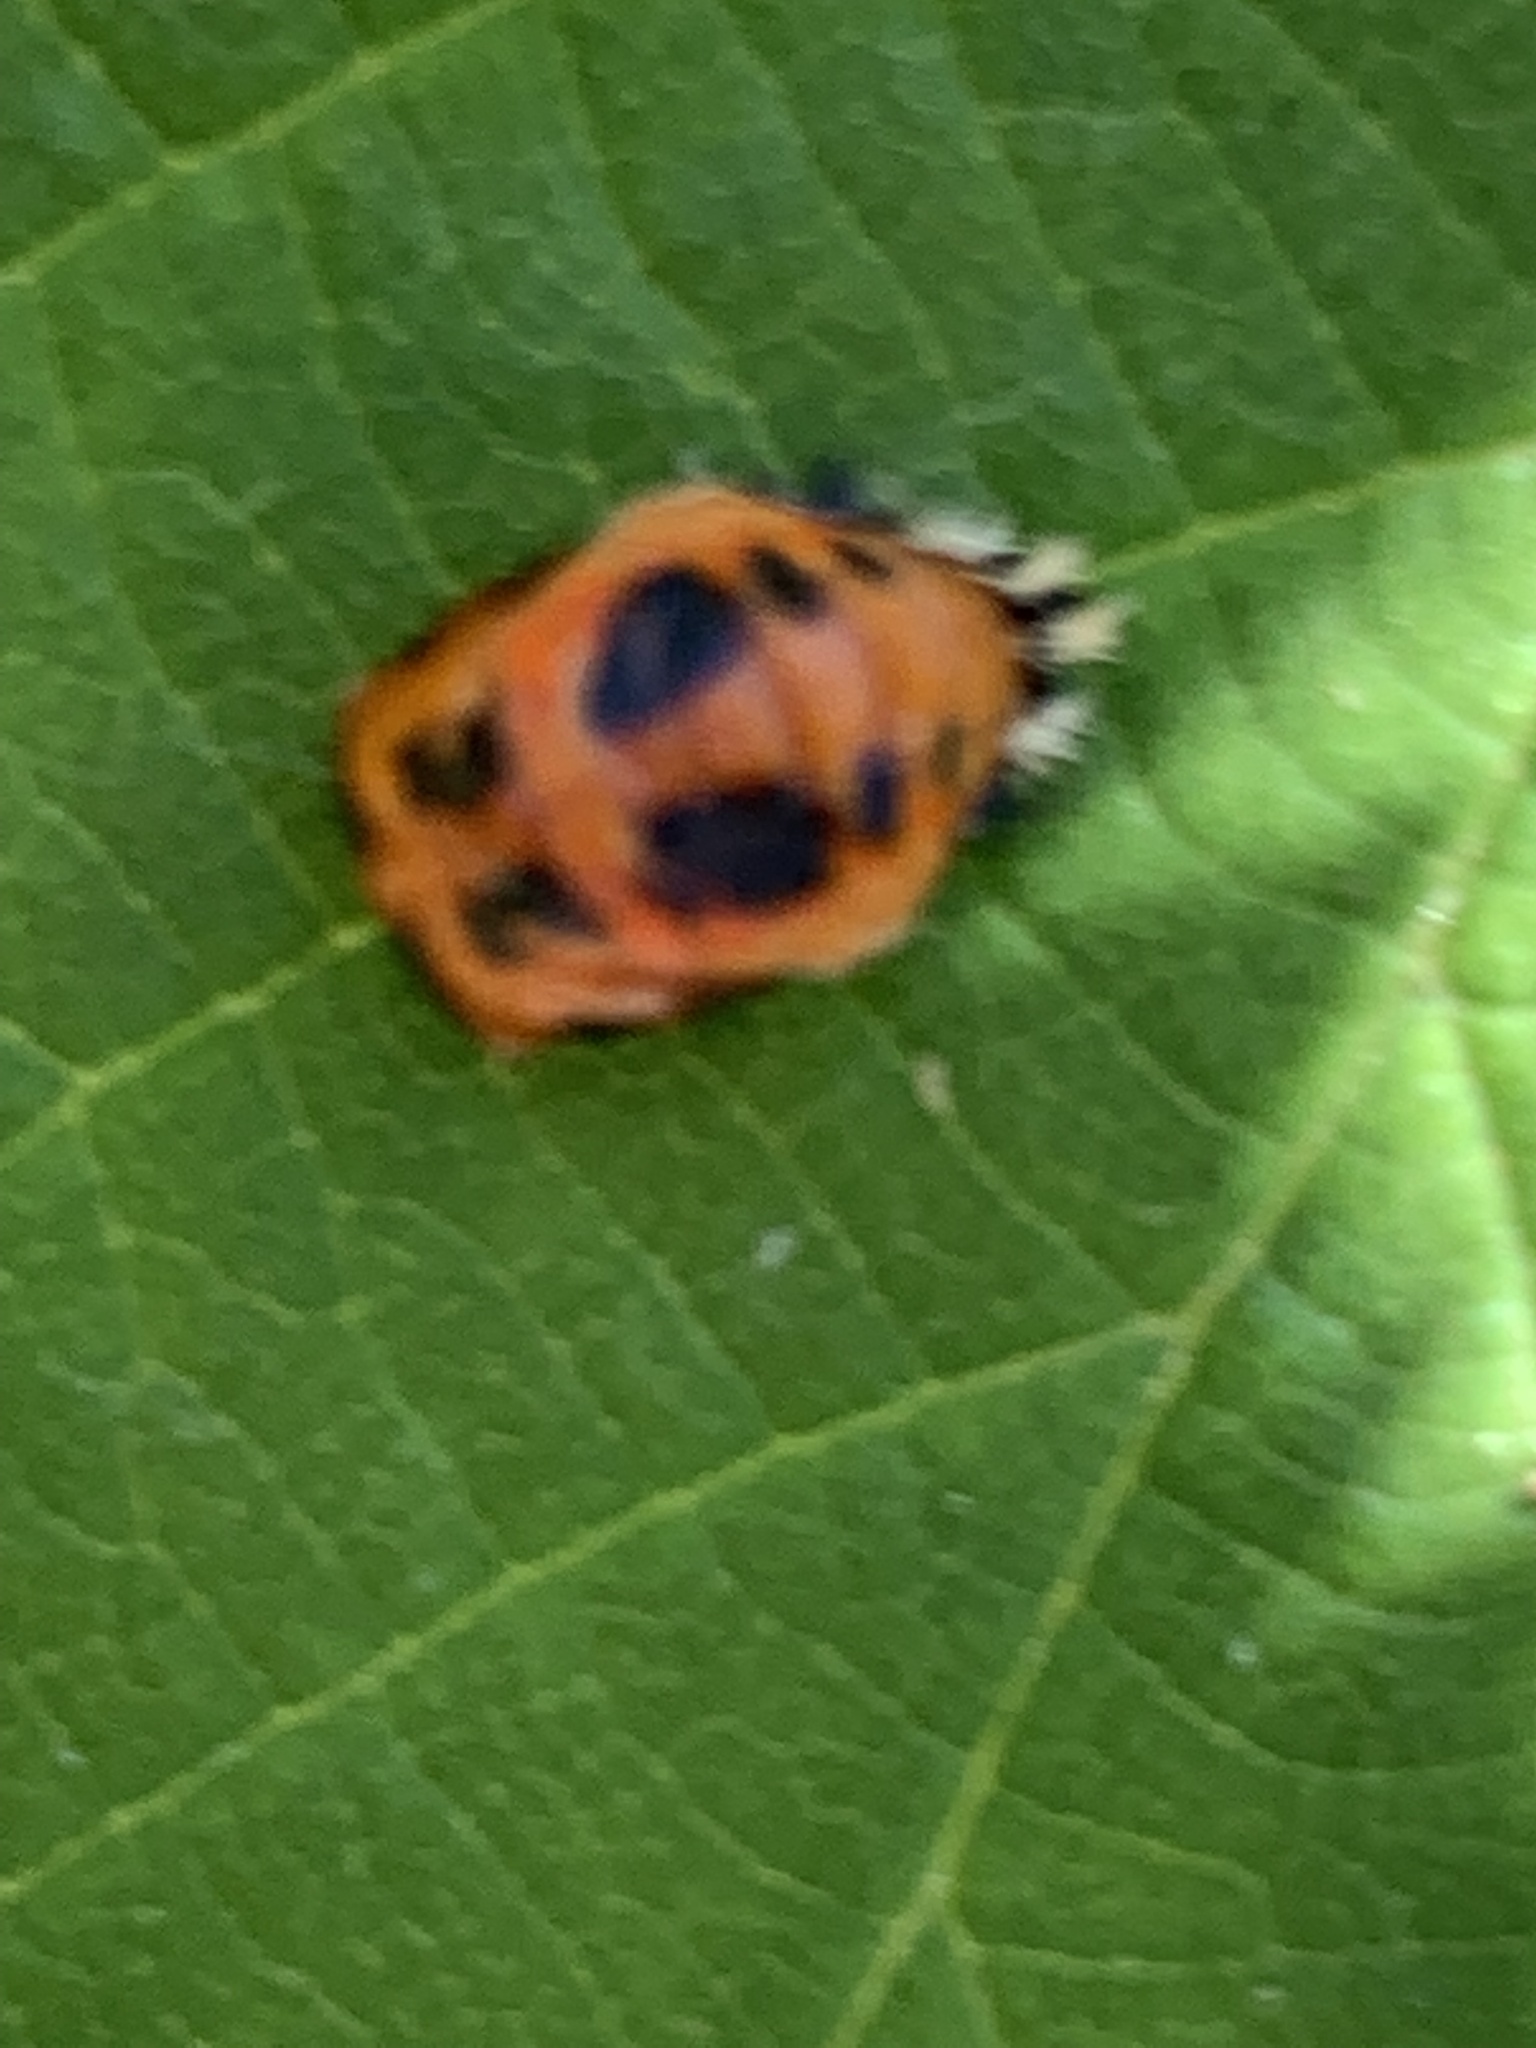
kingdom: Animalia
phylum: Arthropoda
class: Insecta
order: Coleoptera
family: Coccinellidae
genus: Harmonia
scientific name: Harmonia axyridis
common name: Harlequin ladybird
